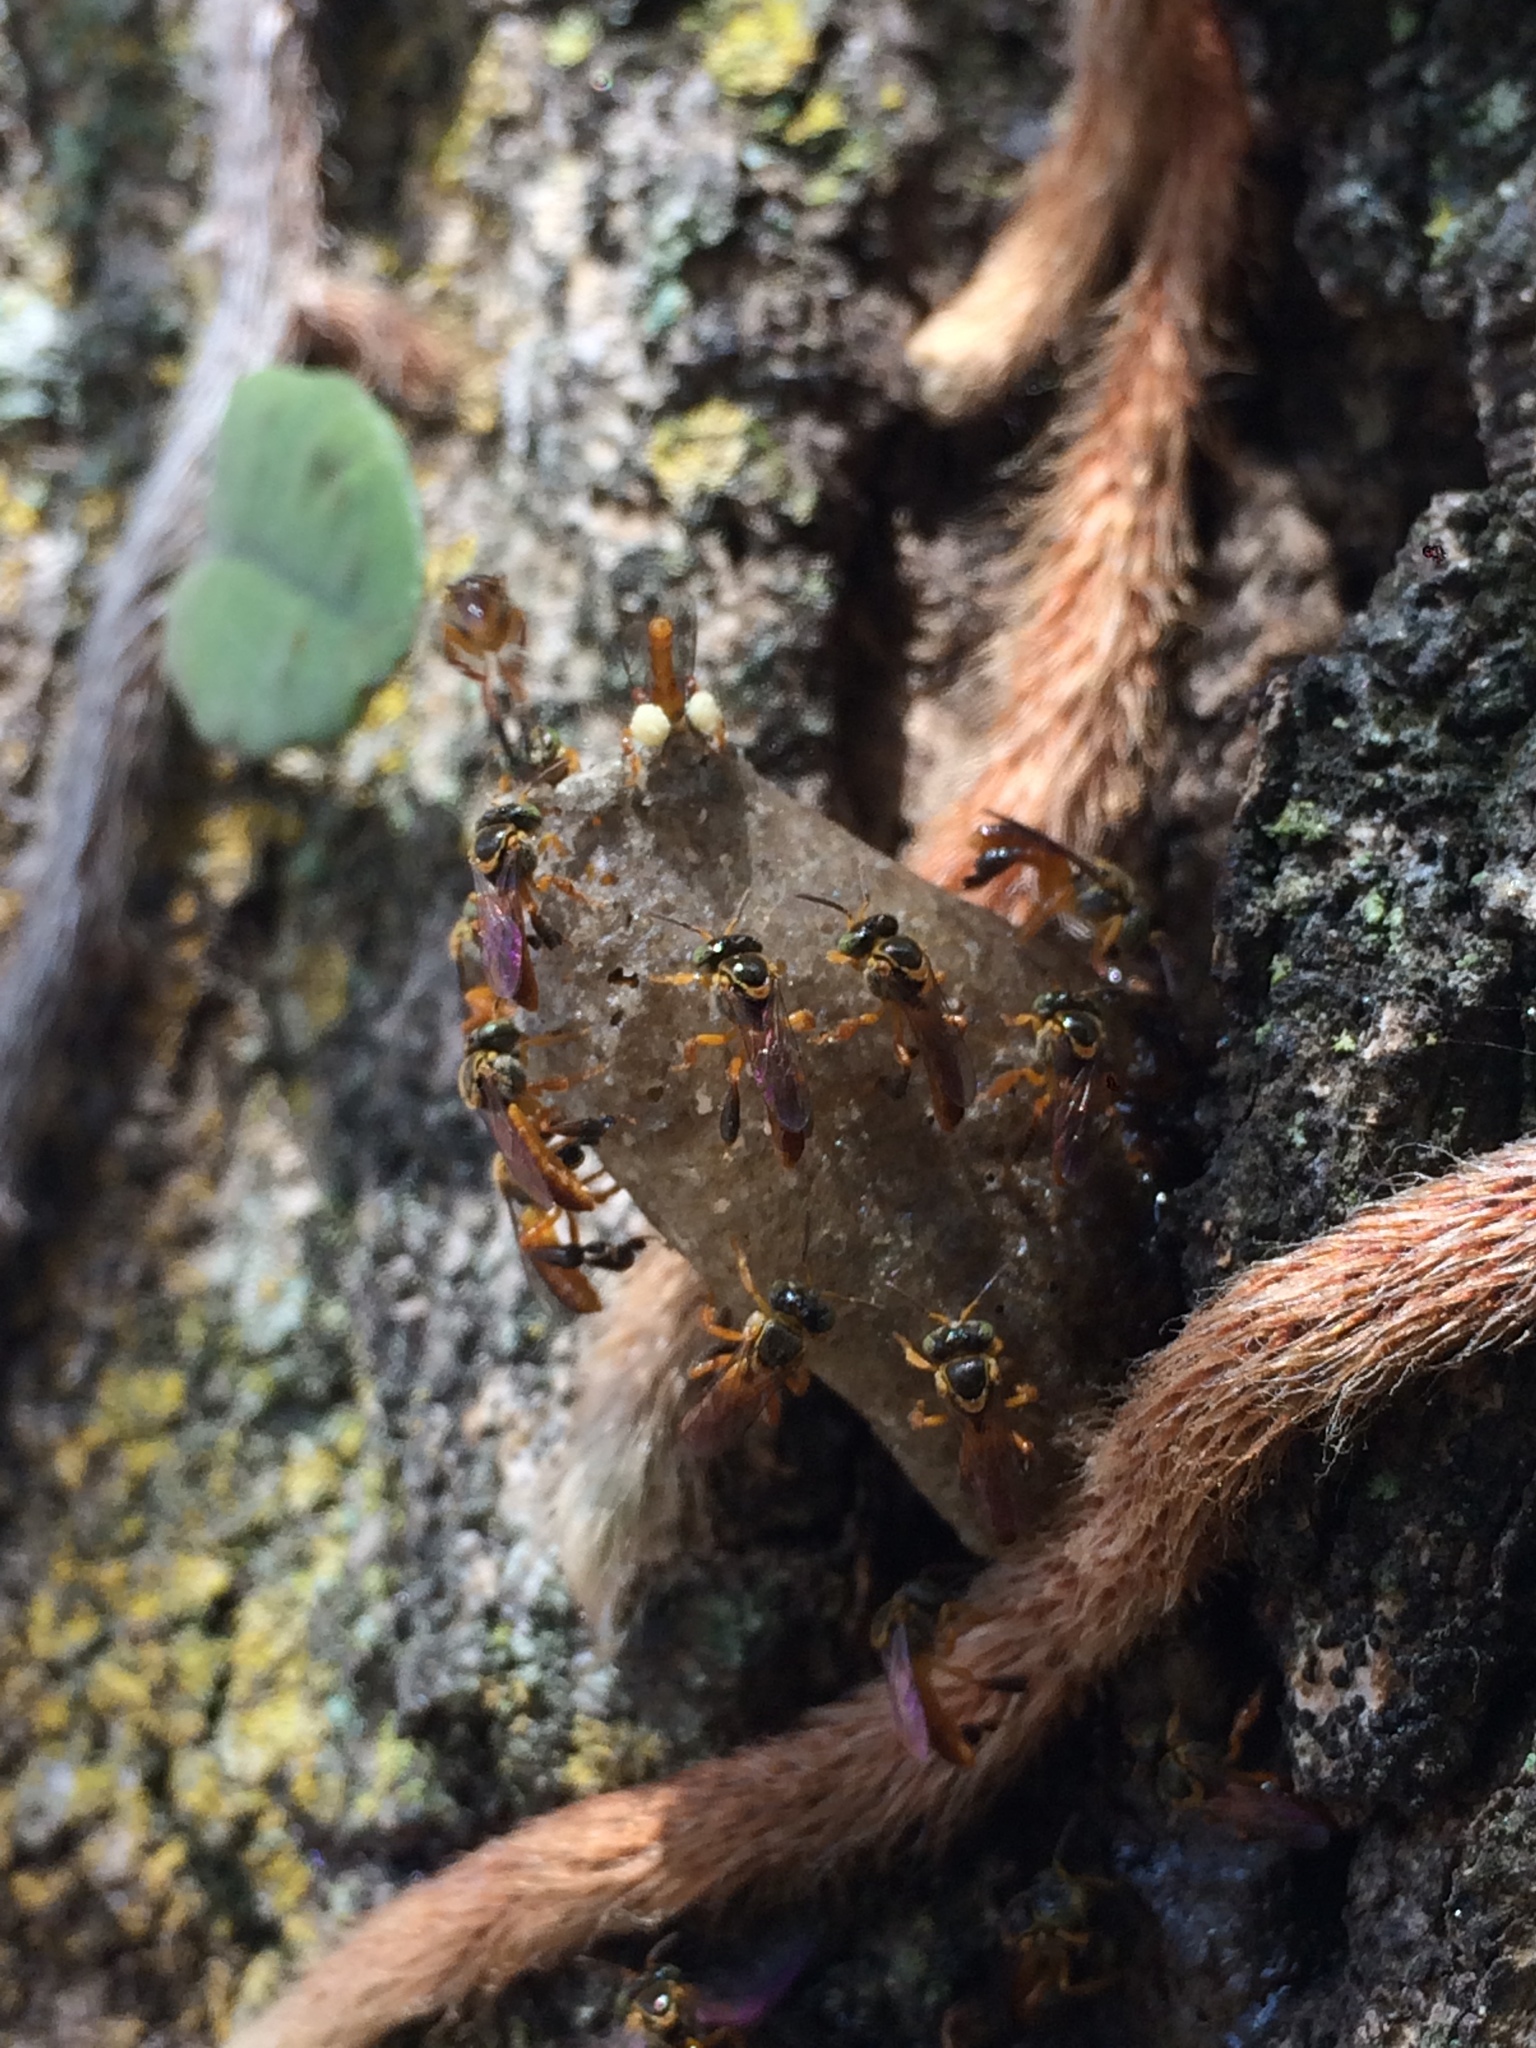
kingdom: Animalia
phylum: Arthropoda
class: Insecta
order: Hymenoptera
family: Apidae
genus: Tetragonisca
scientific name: Tetragonisca angustula
